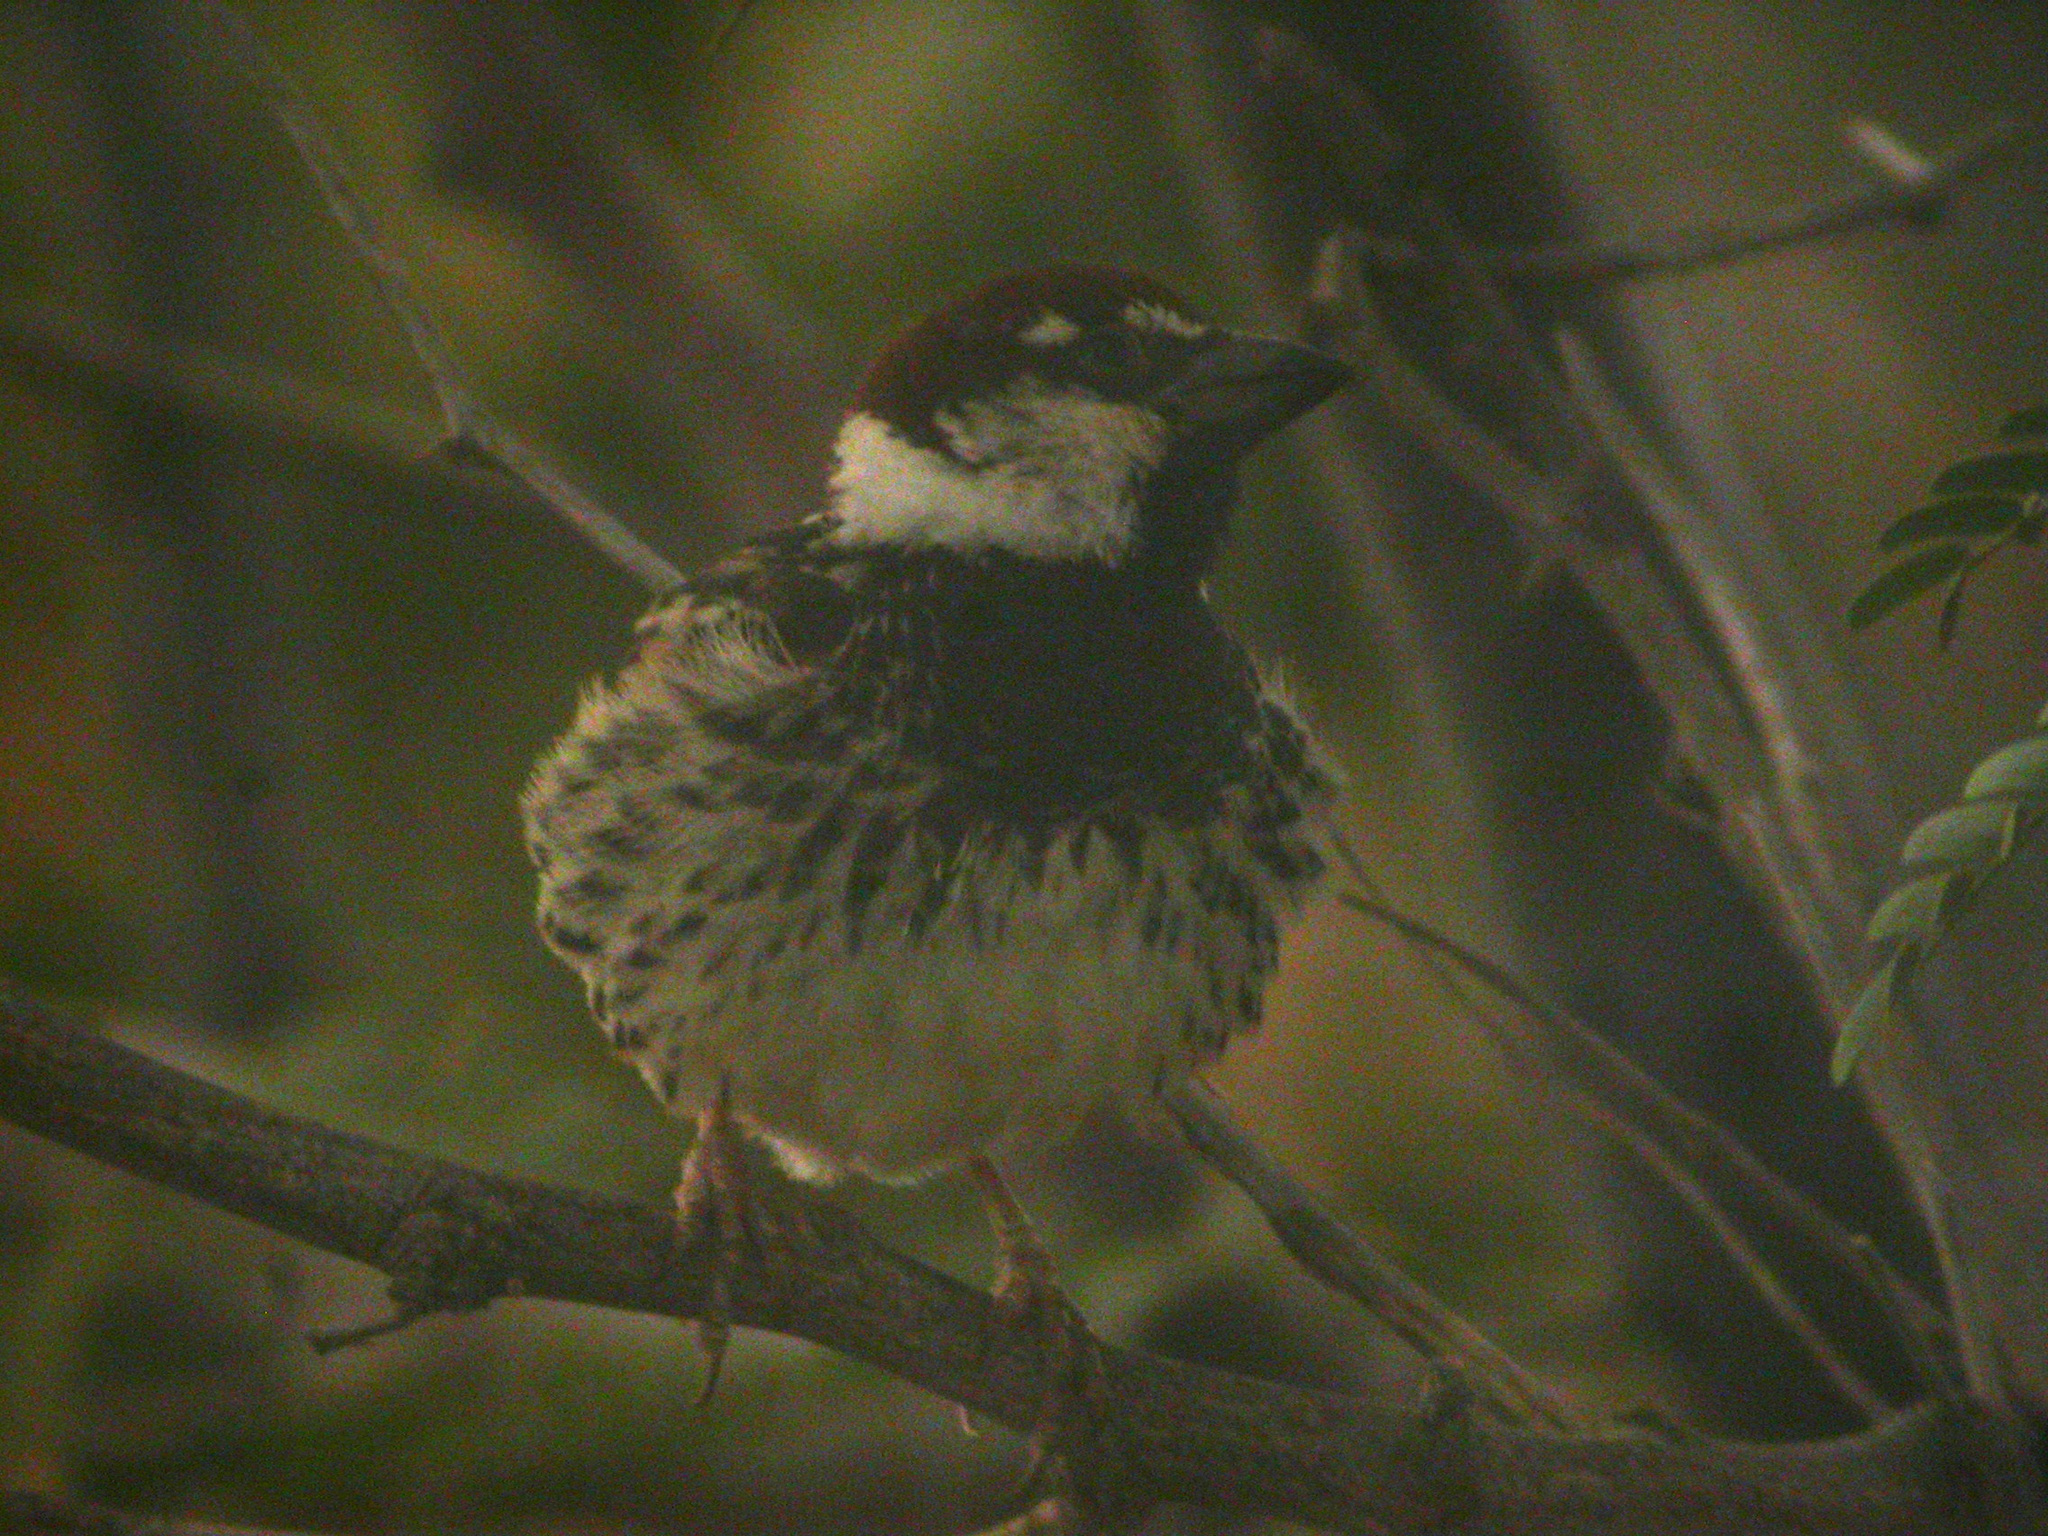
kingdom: Animalia
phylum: Chordata
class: Aves
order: Passeriformes
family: Passeridae
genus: Passer
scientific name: Passer hispaniolensis
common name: Spanish sparrow
